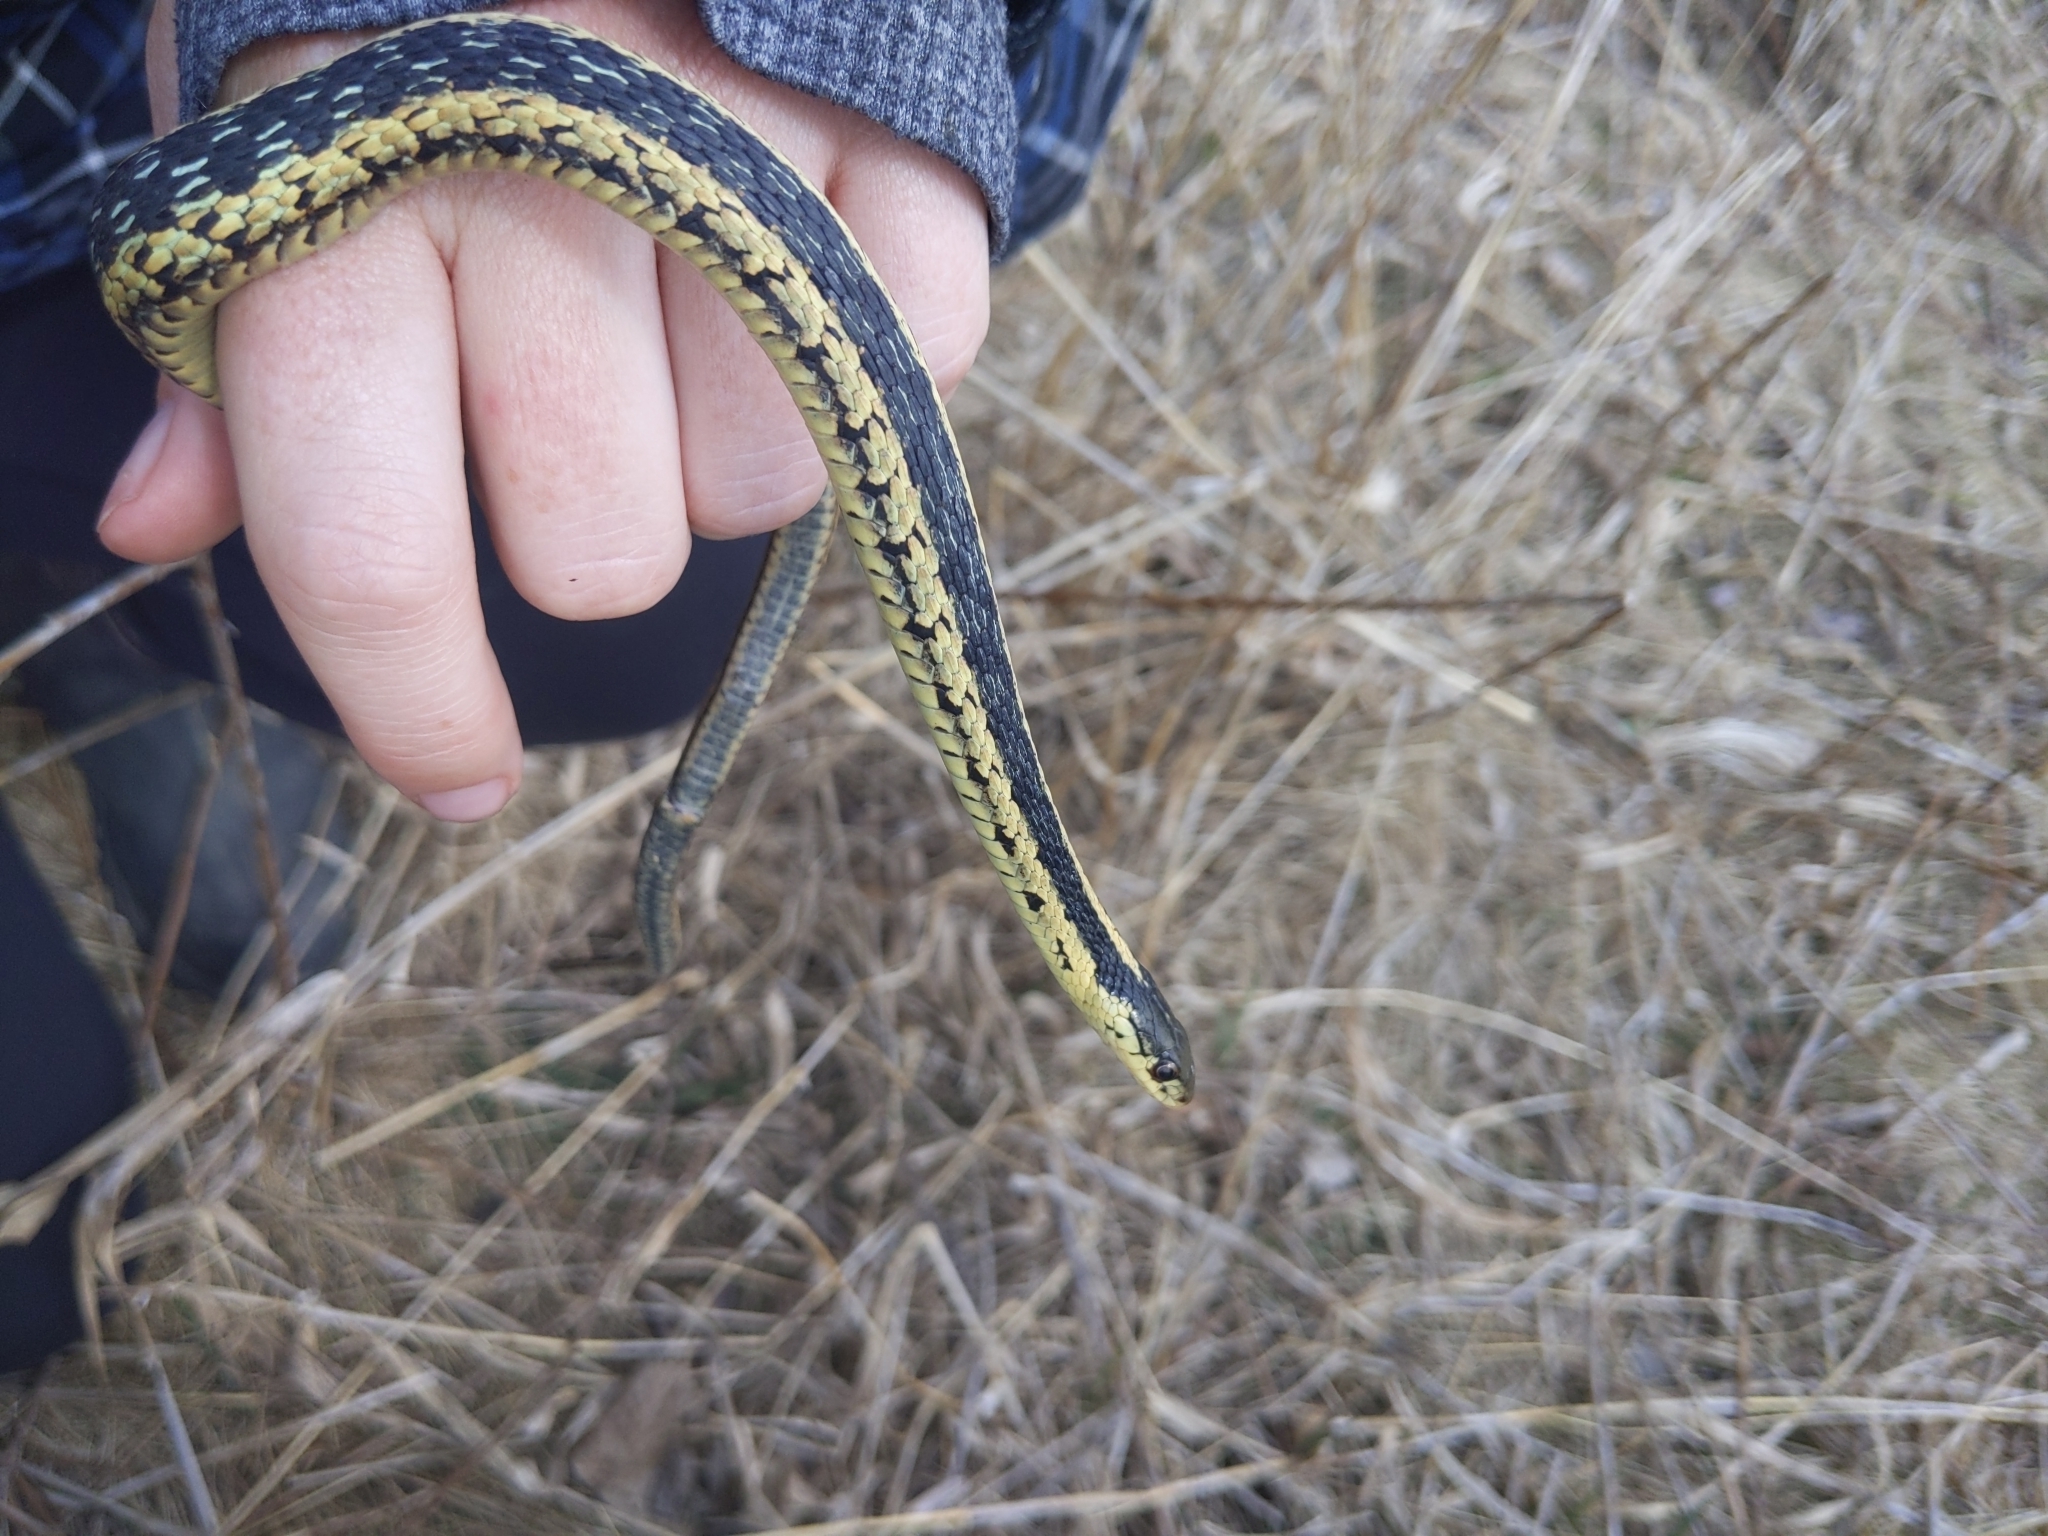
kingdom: Animalia
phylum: Chordata
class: Squamata
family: Colubridae
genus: Thamnophis
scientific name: Thamnophis sirtalis
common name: Common garter snake
